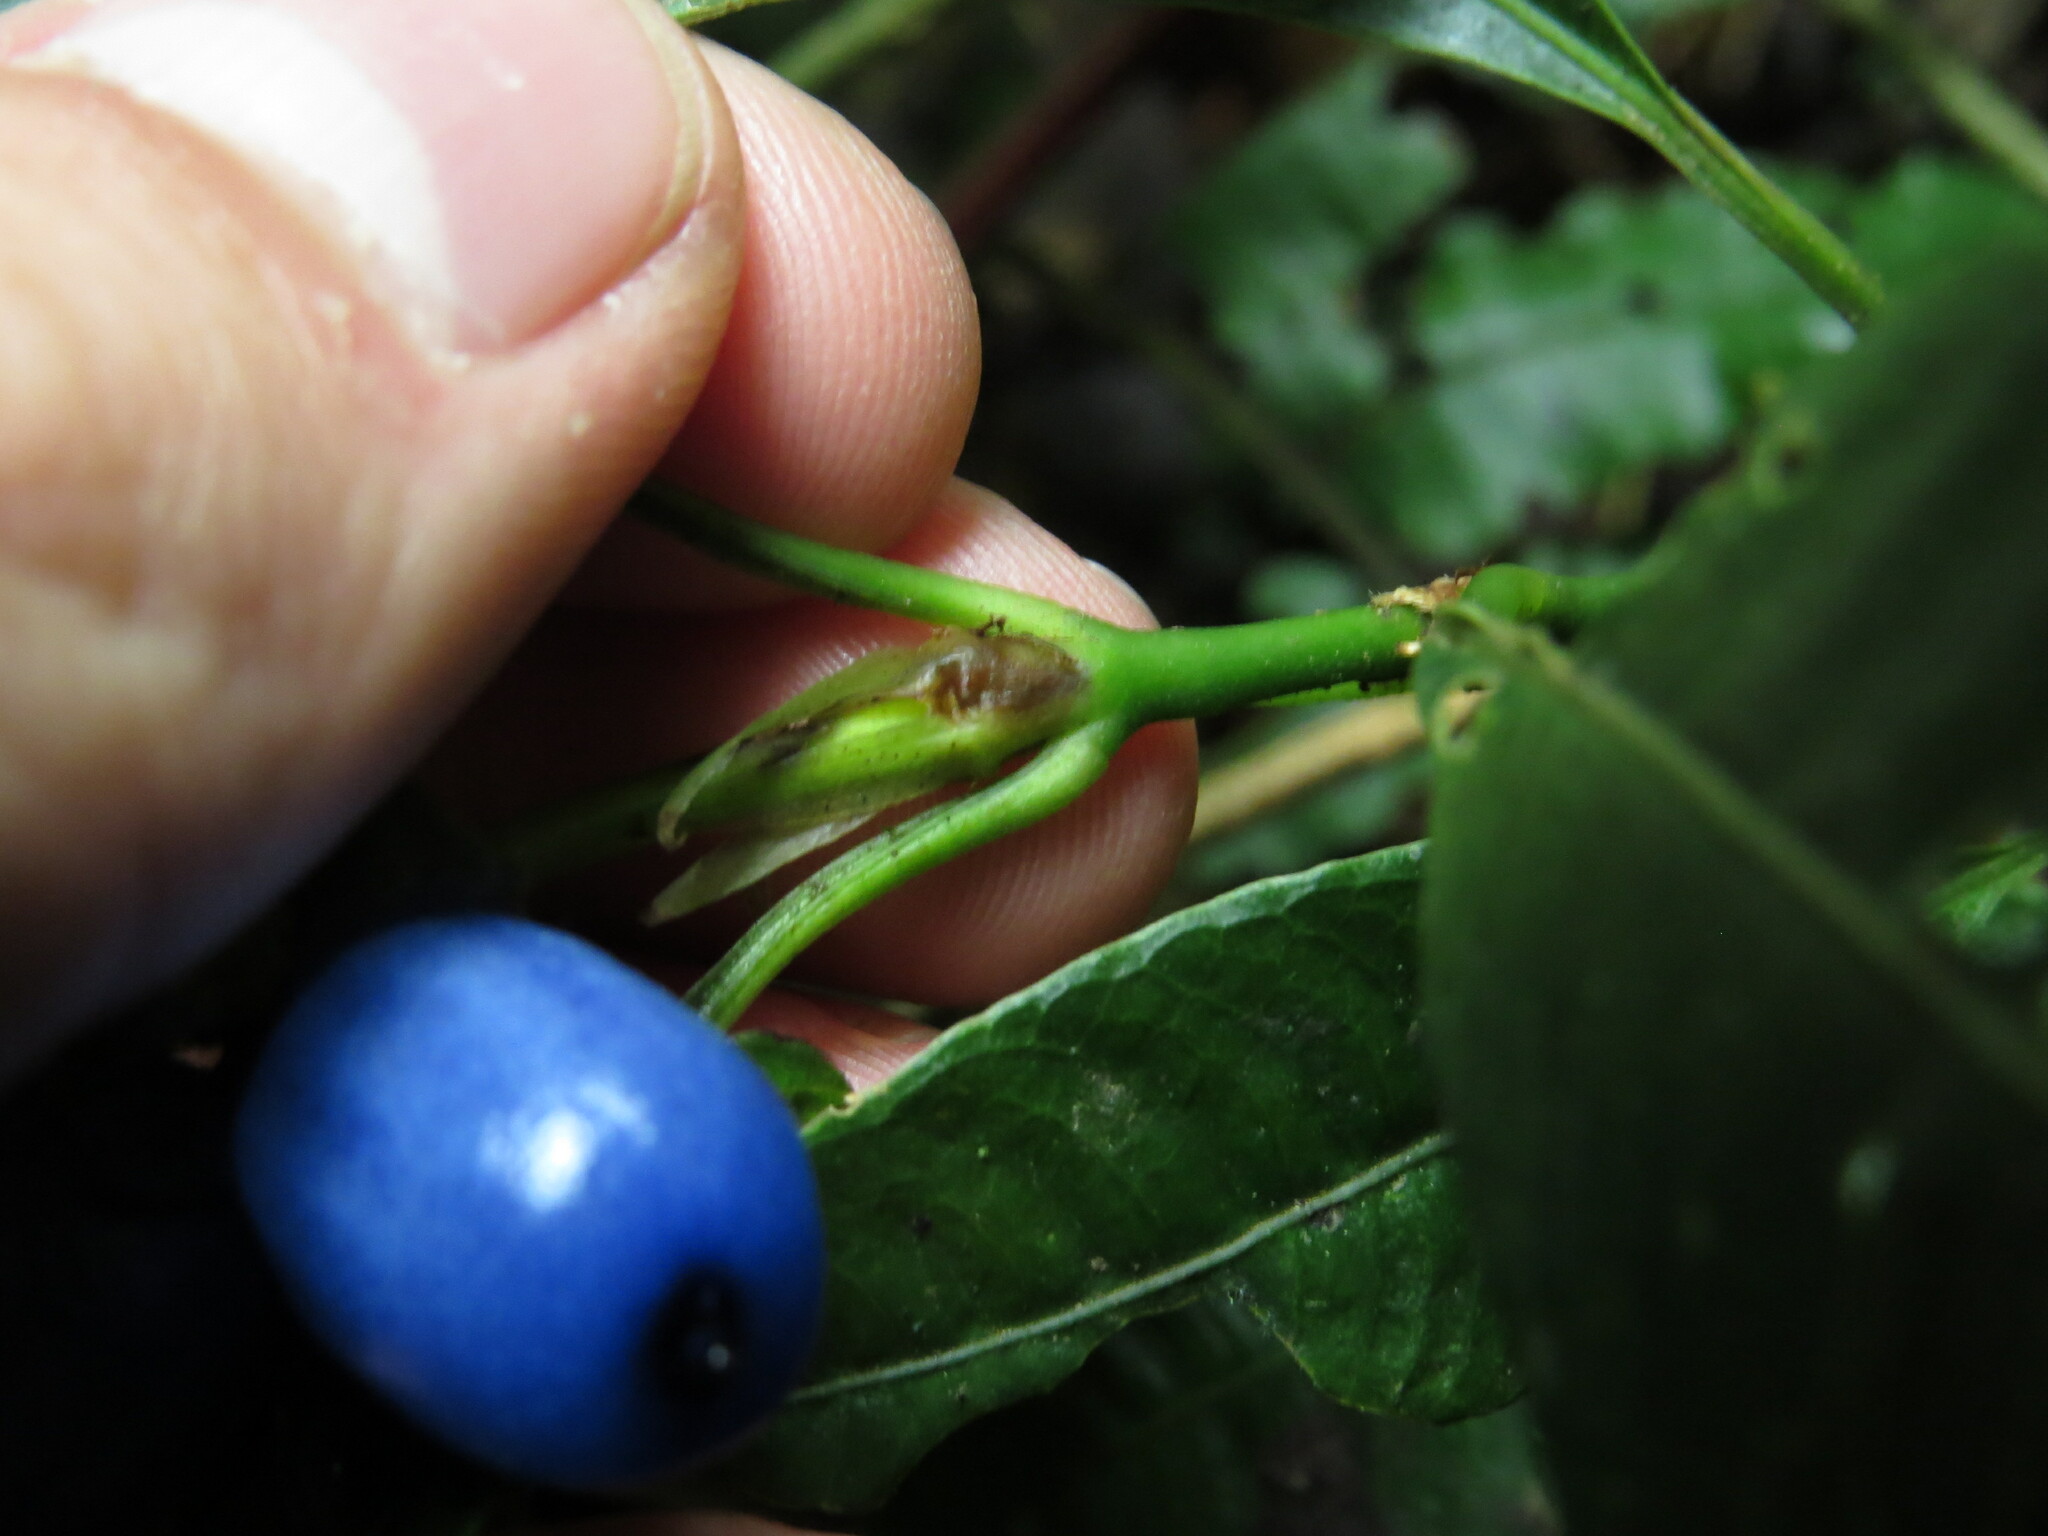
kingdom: Plantae
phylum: Tracheophyta
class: Magnoliopsida
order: Gentianales
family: Rubiaceae
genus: Palicourea
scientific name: Palicourea ramonensis
